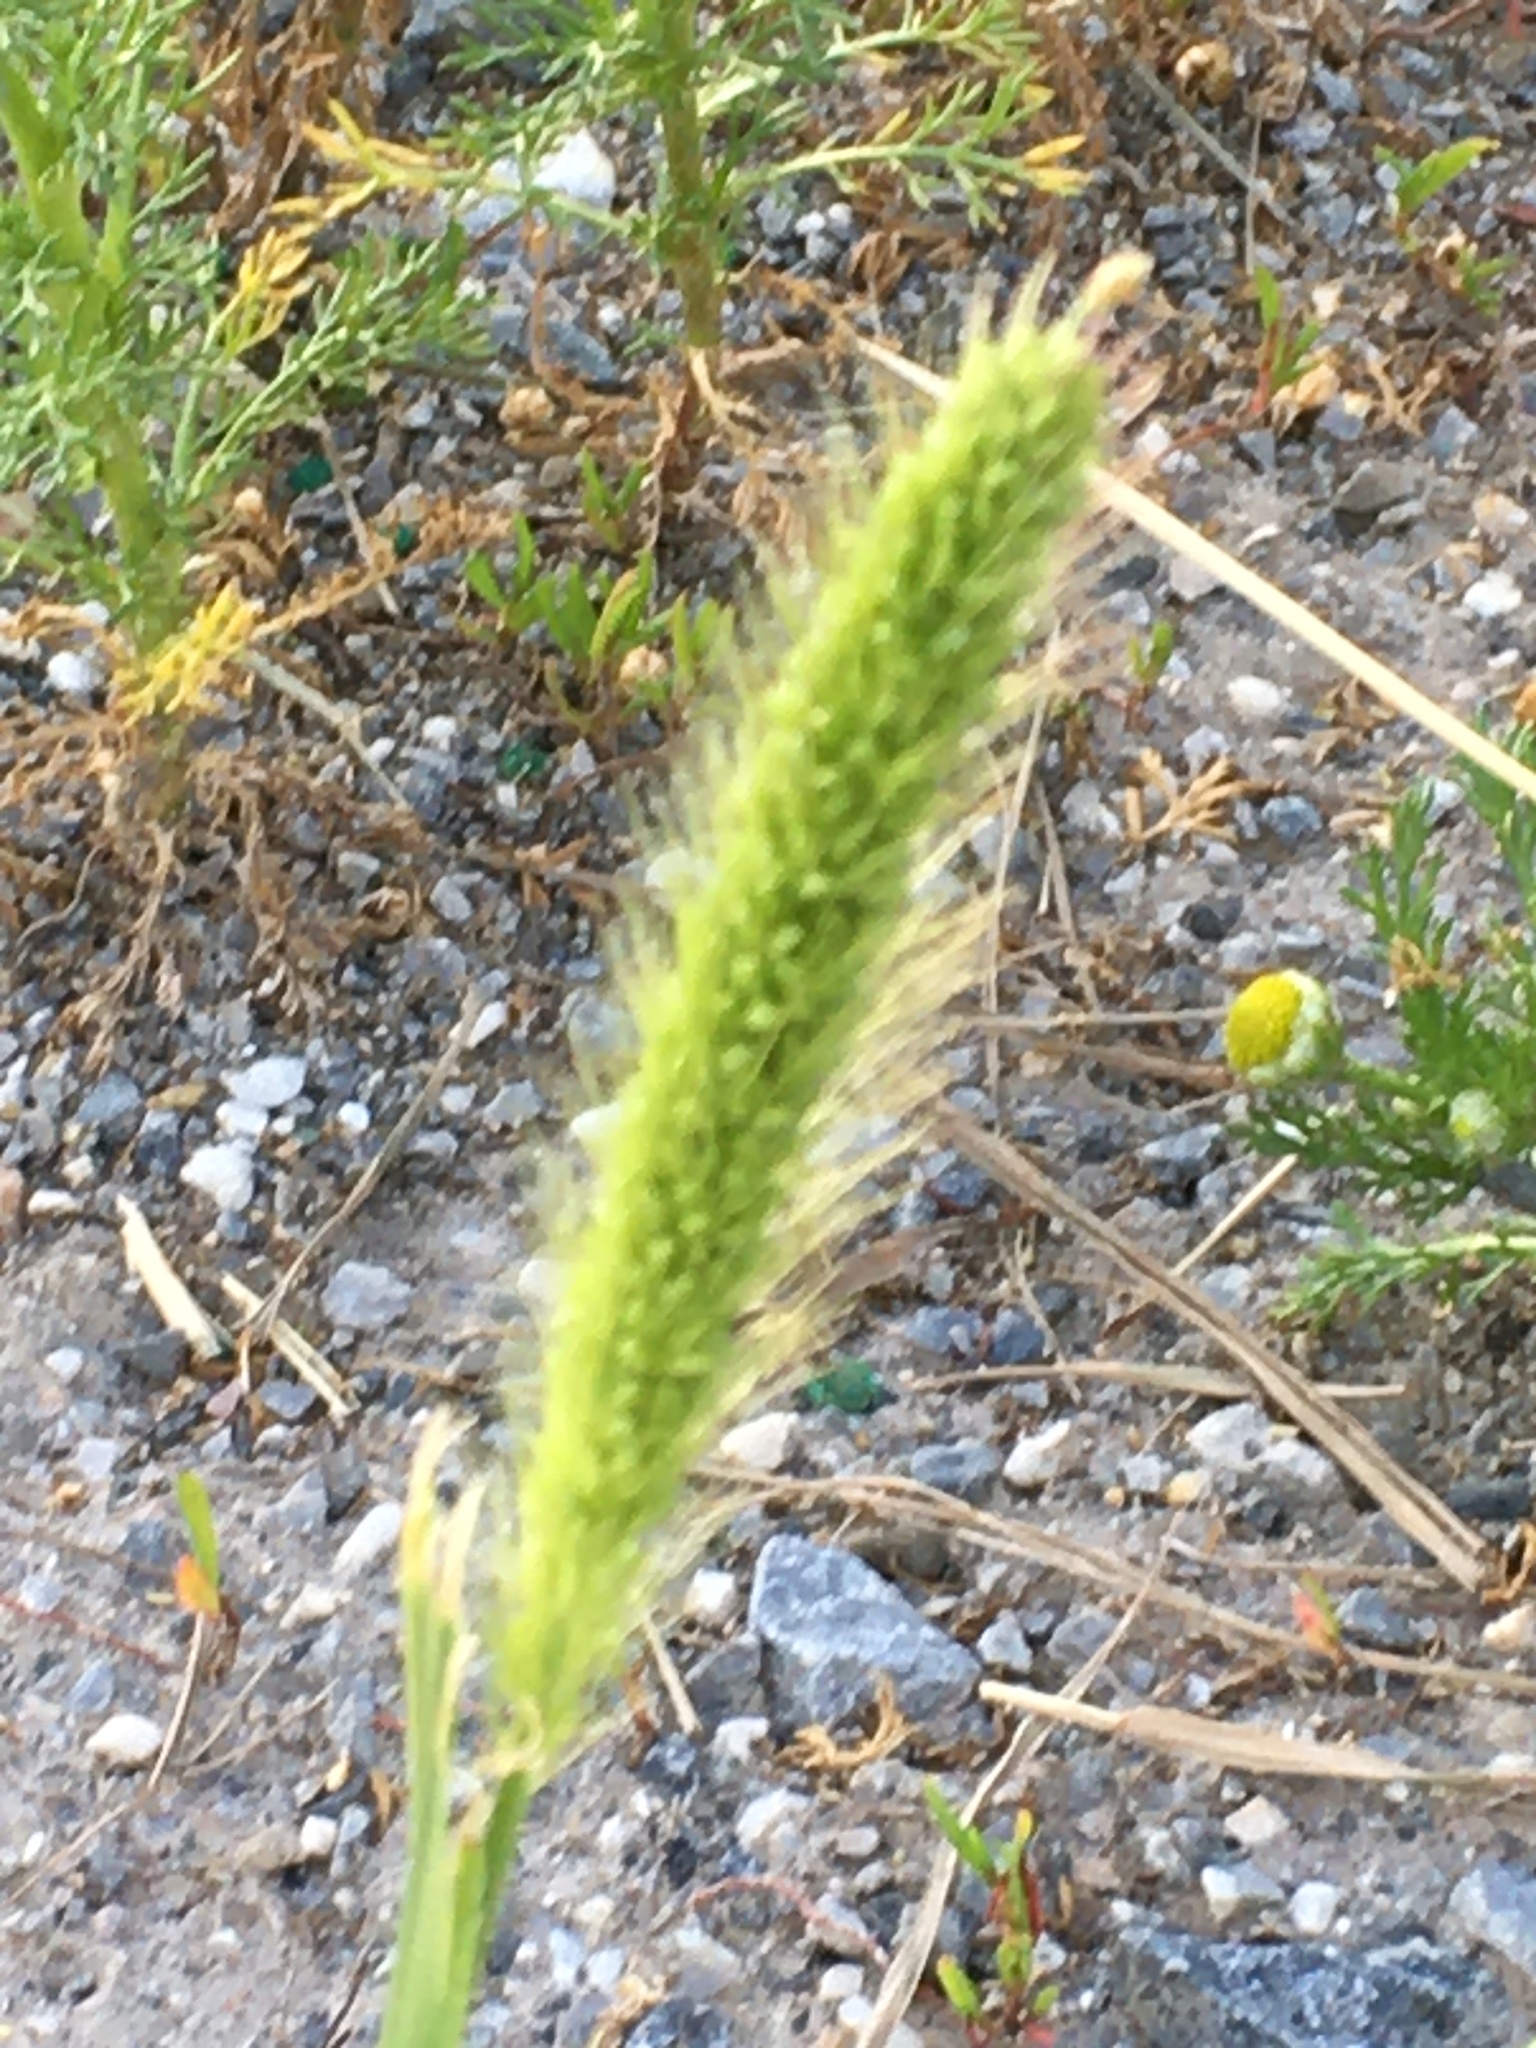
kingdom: Plantae
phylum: Tracheophyta
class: Liliopsida
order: Poales
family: Poaceae
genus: Setaria
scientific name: Setaria viridis
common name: Green bristlegrass
